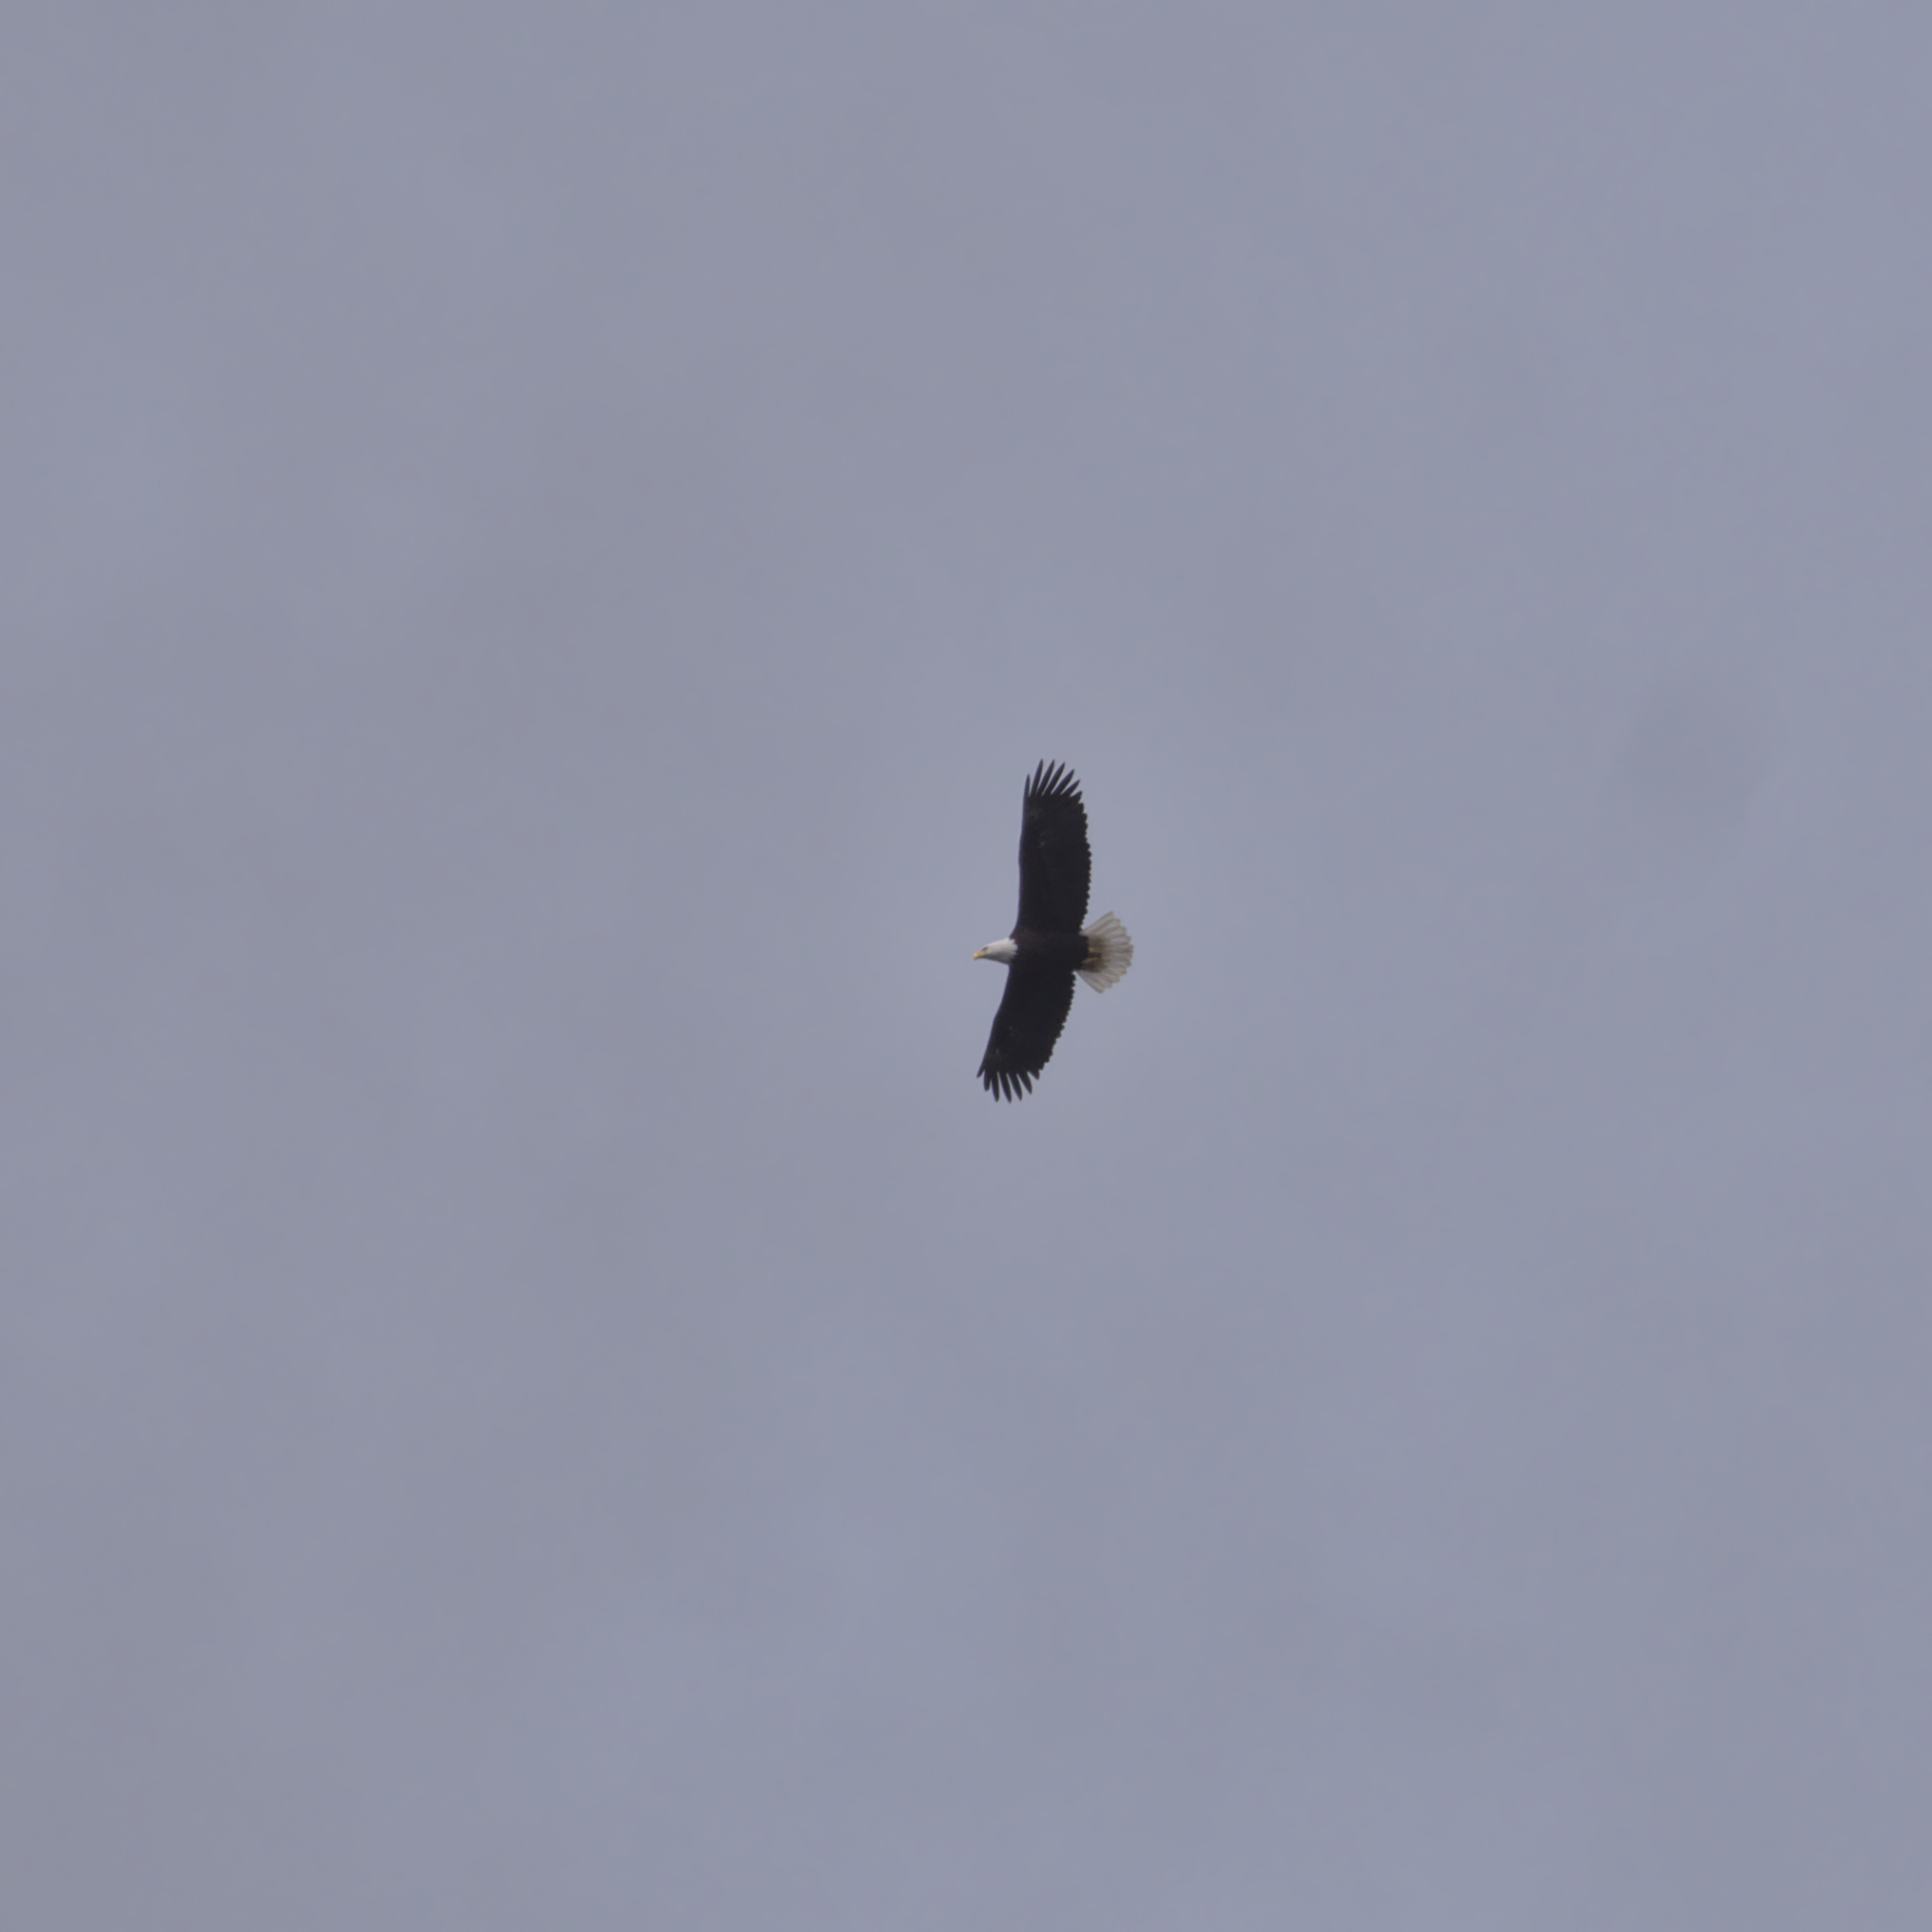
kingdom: Animalia
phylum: Chordata
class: Aves
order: Accipitriformes
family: Accipitridae
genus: Haliaeetus
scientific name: Haliaeetus leucocephalus
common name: Bald eagle
